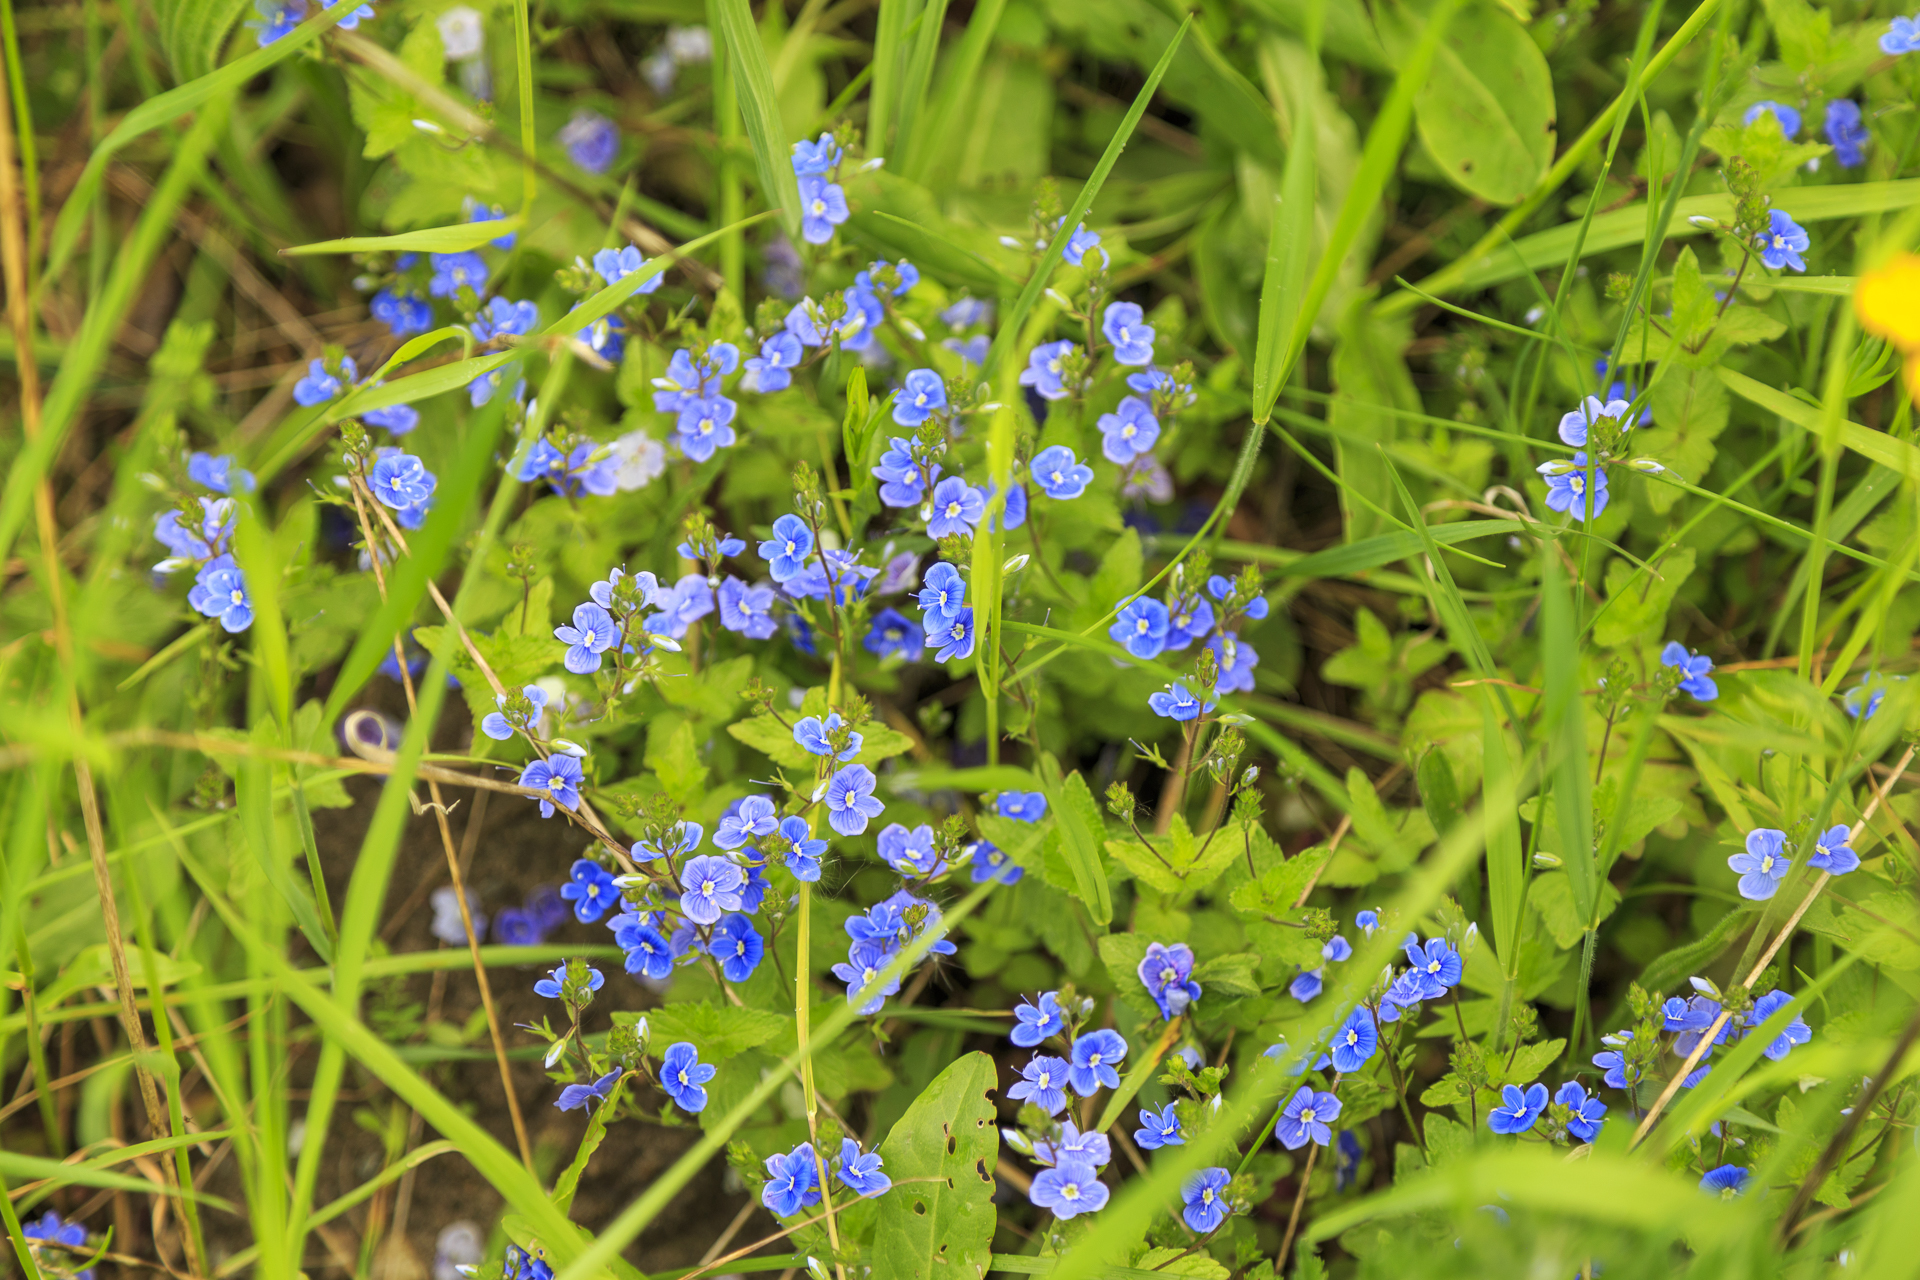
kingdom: Plantae
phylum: Tracheophyta
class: Magnoliopsida
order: Lamiales
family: Plantaginaceae
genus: Veronica
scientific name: Veronica chamaedrys
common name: Germander speedwell
